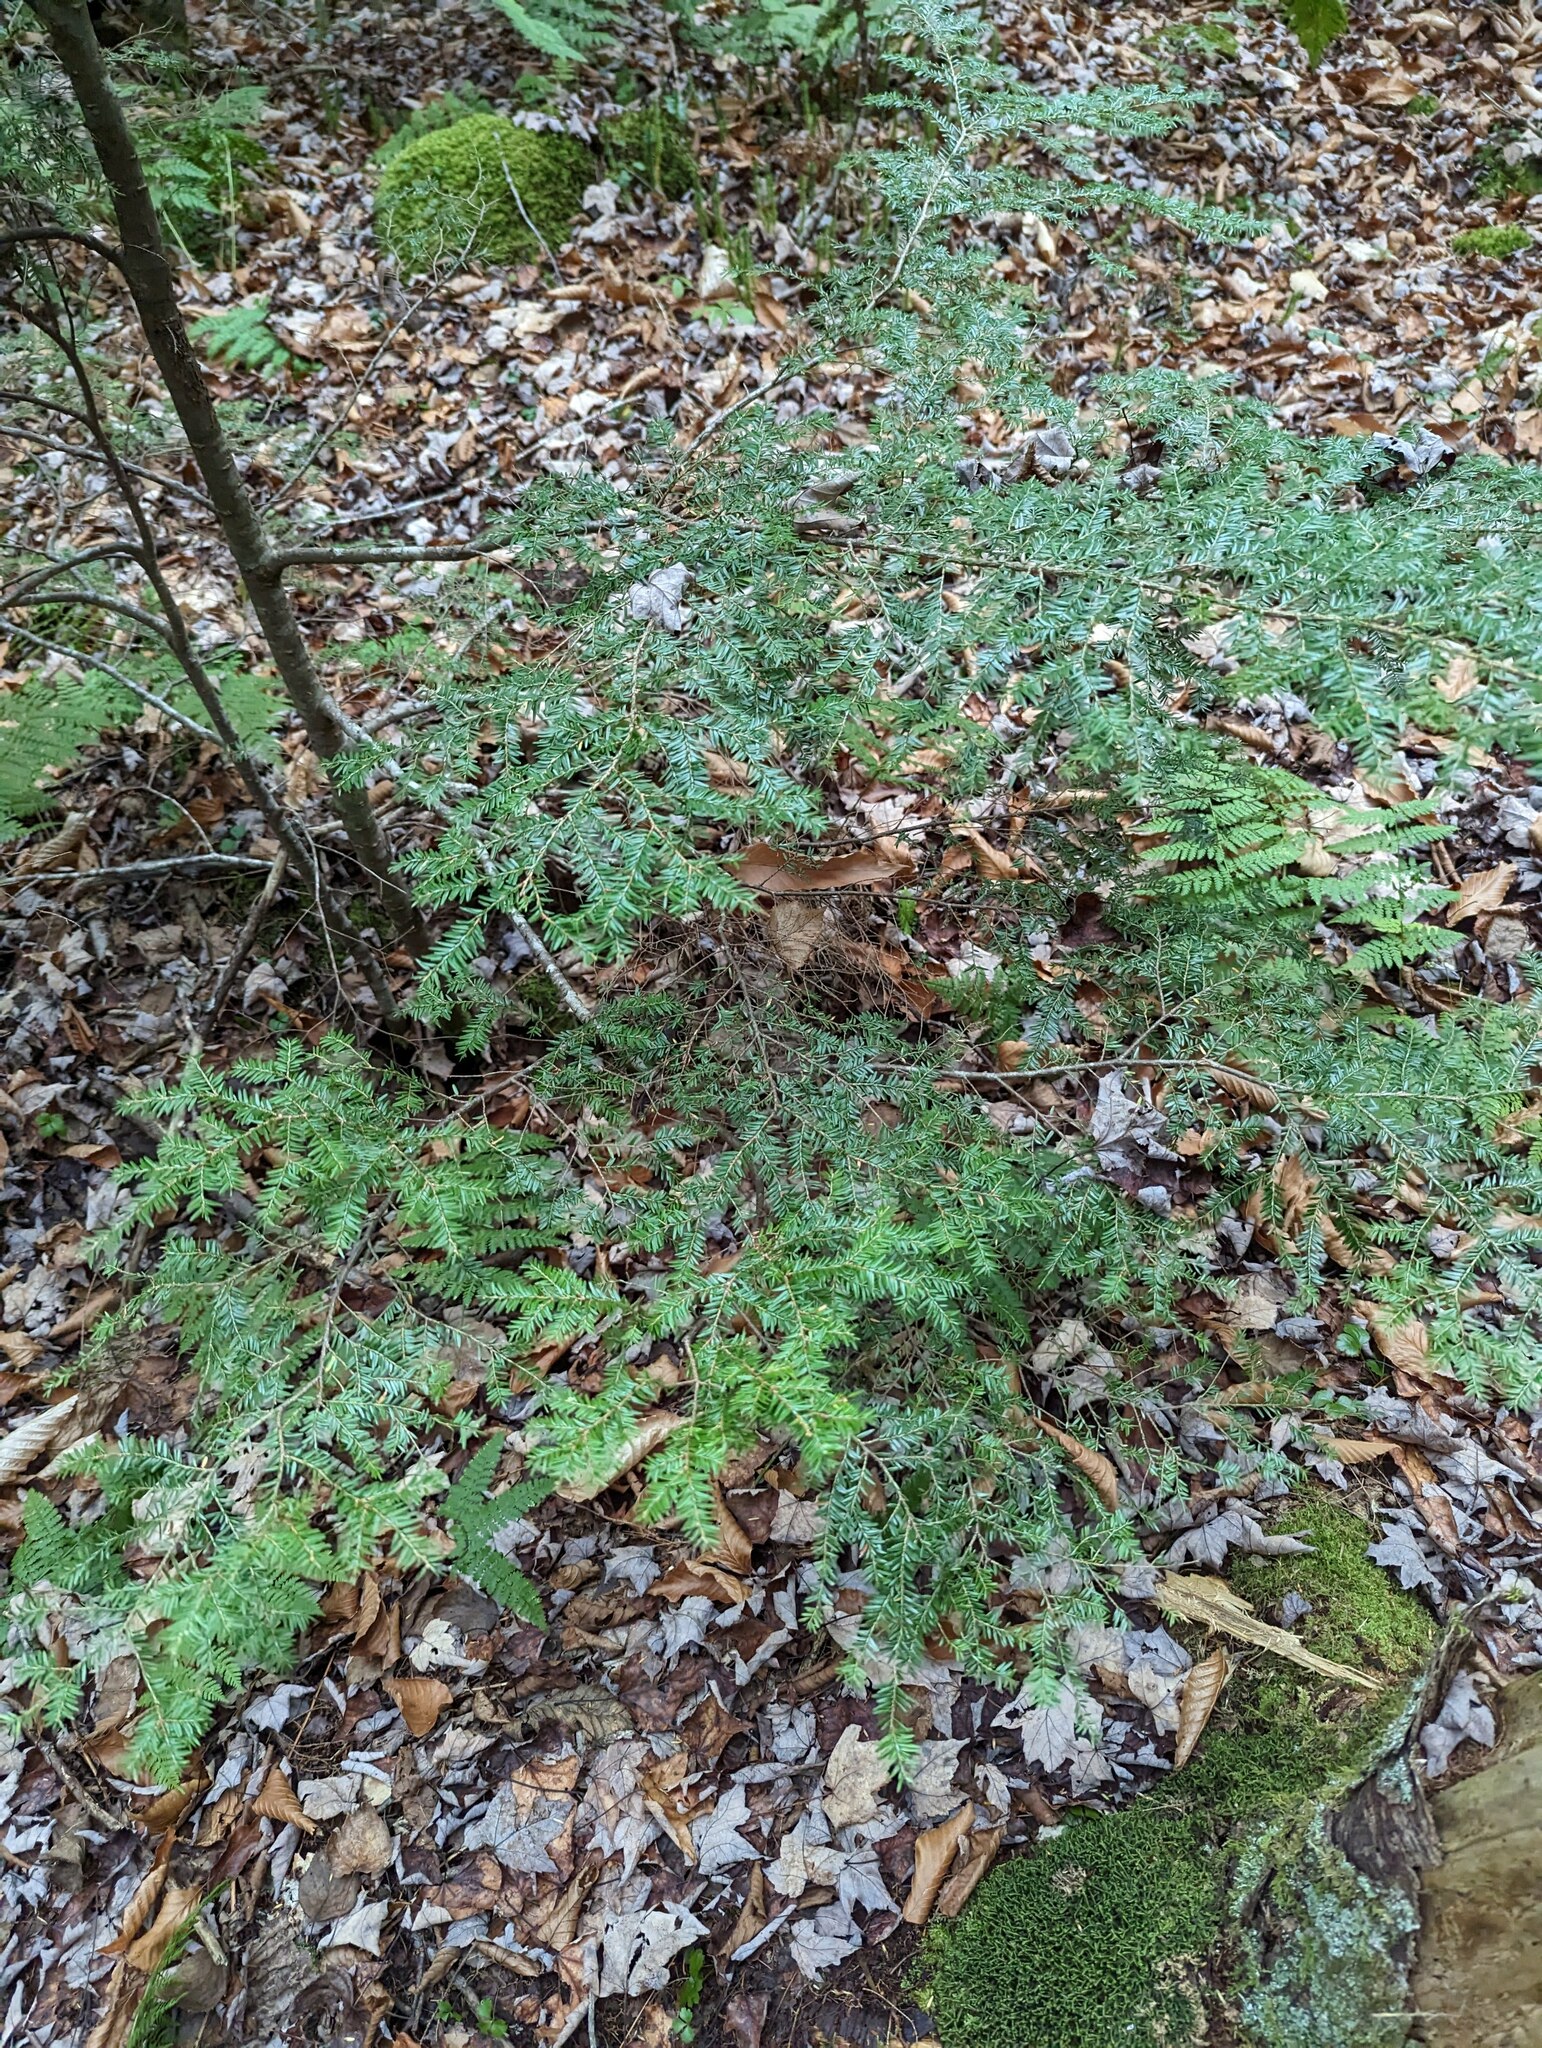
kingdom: Plantae
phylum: Tracheophyta
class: Pinopsida
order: Pinales
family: Pinaceae
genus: Tsuga
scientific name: Tsuga canadensis
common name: Eastern hemlock
